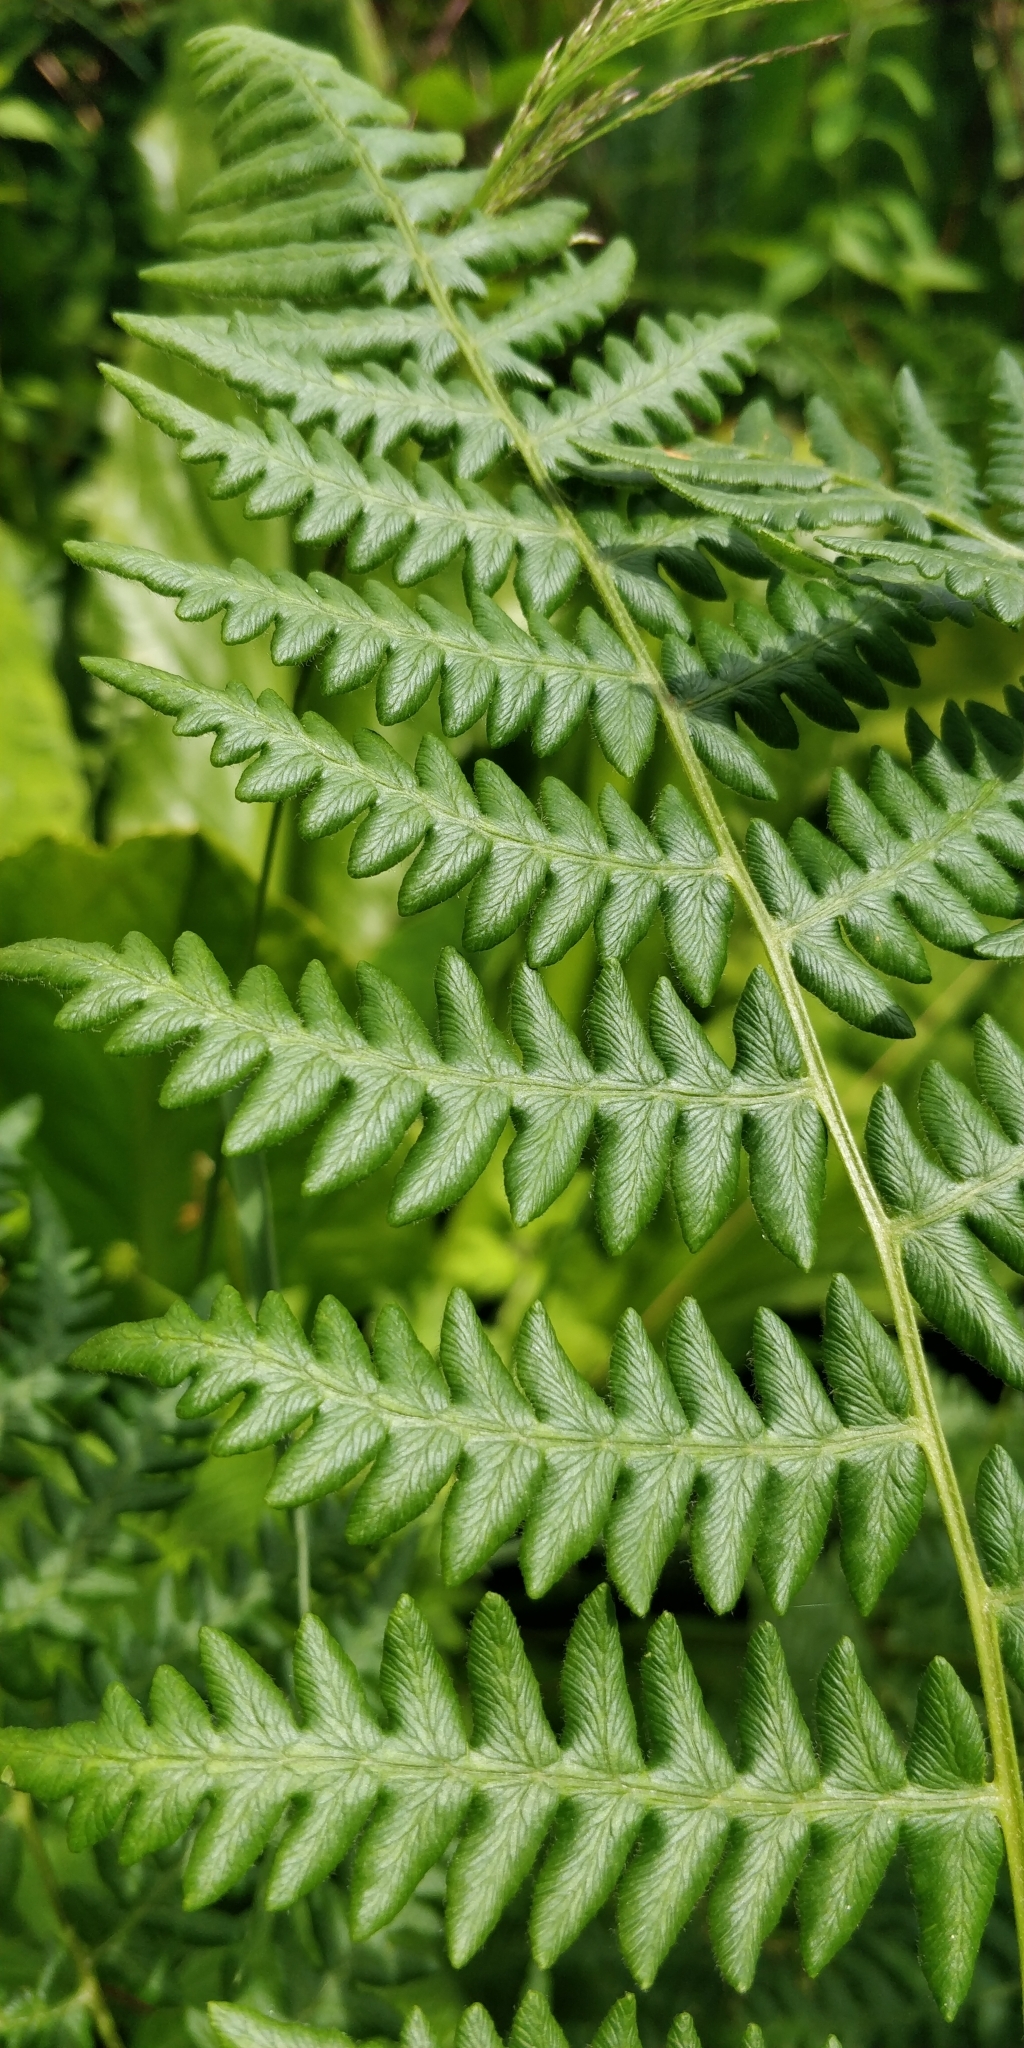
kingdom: Plantae
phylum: Tracheophyta
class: Polypodiopsida
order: Polypodiales
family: Dennstaedtiaceae
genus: Pteridium
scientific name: Pteridium aquilinum
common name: Bracken
